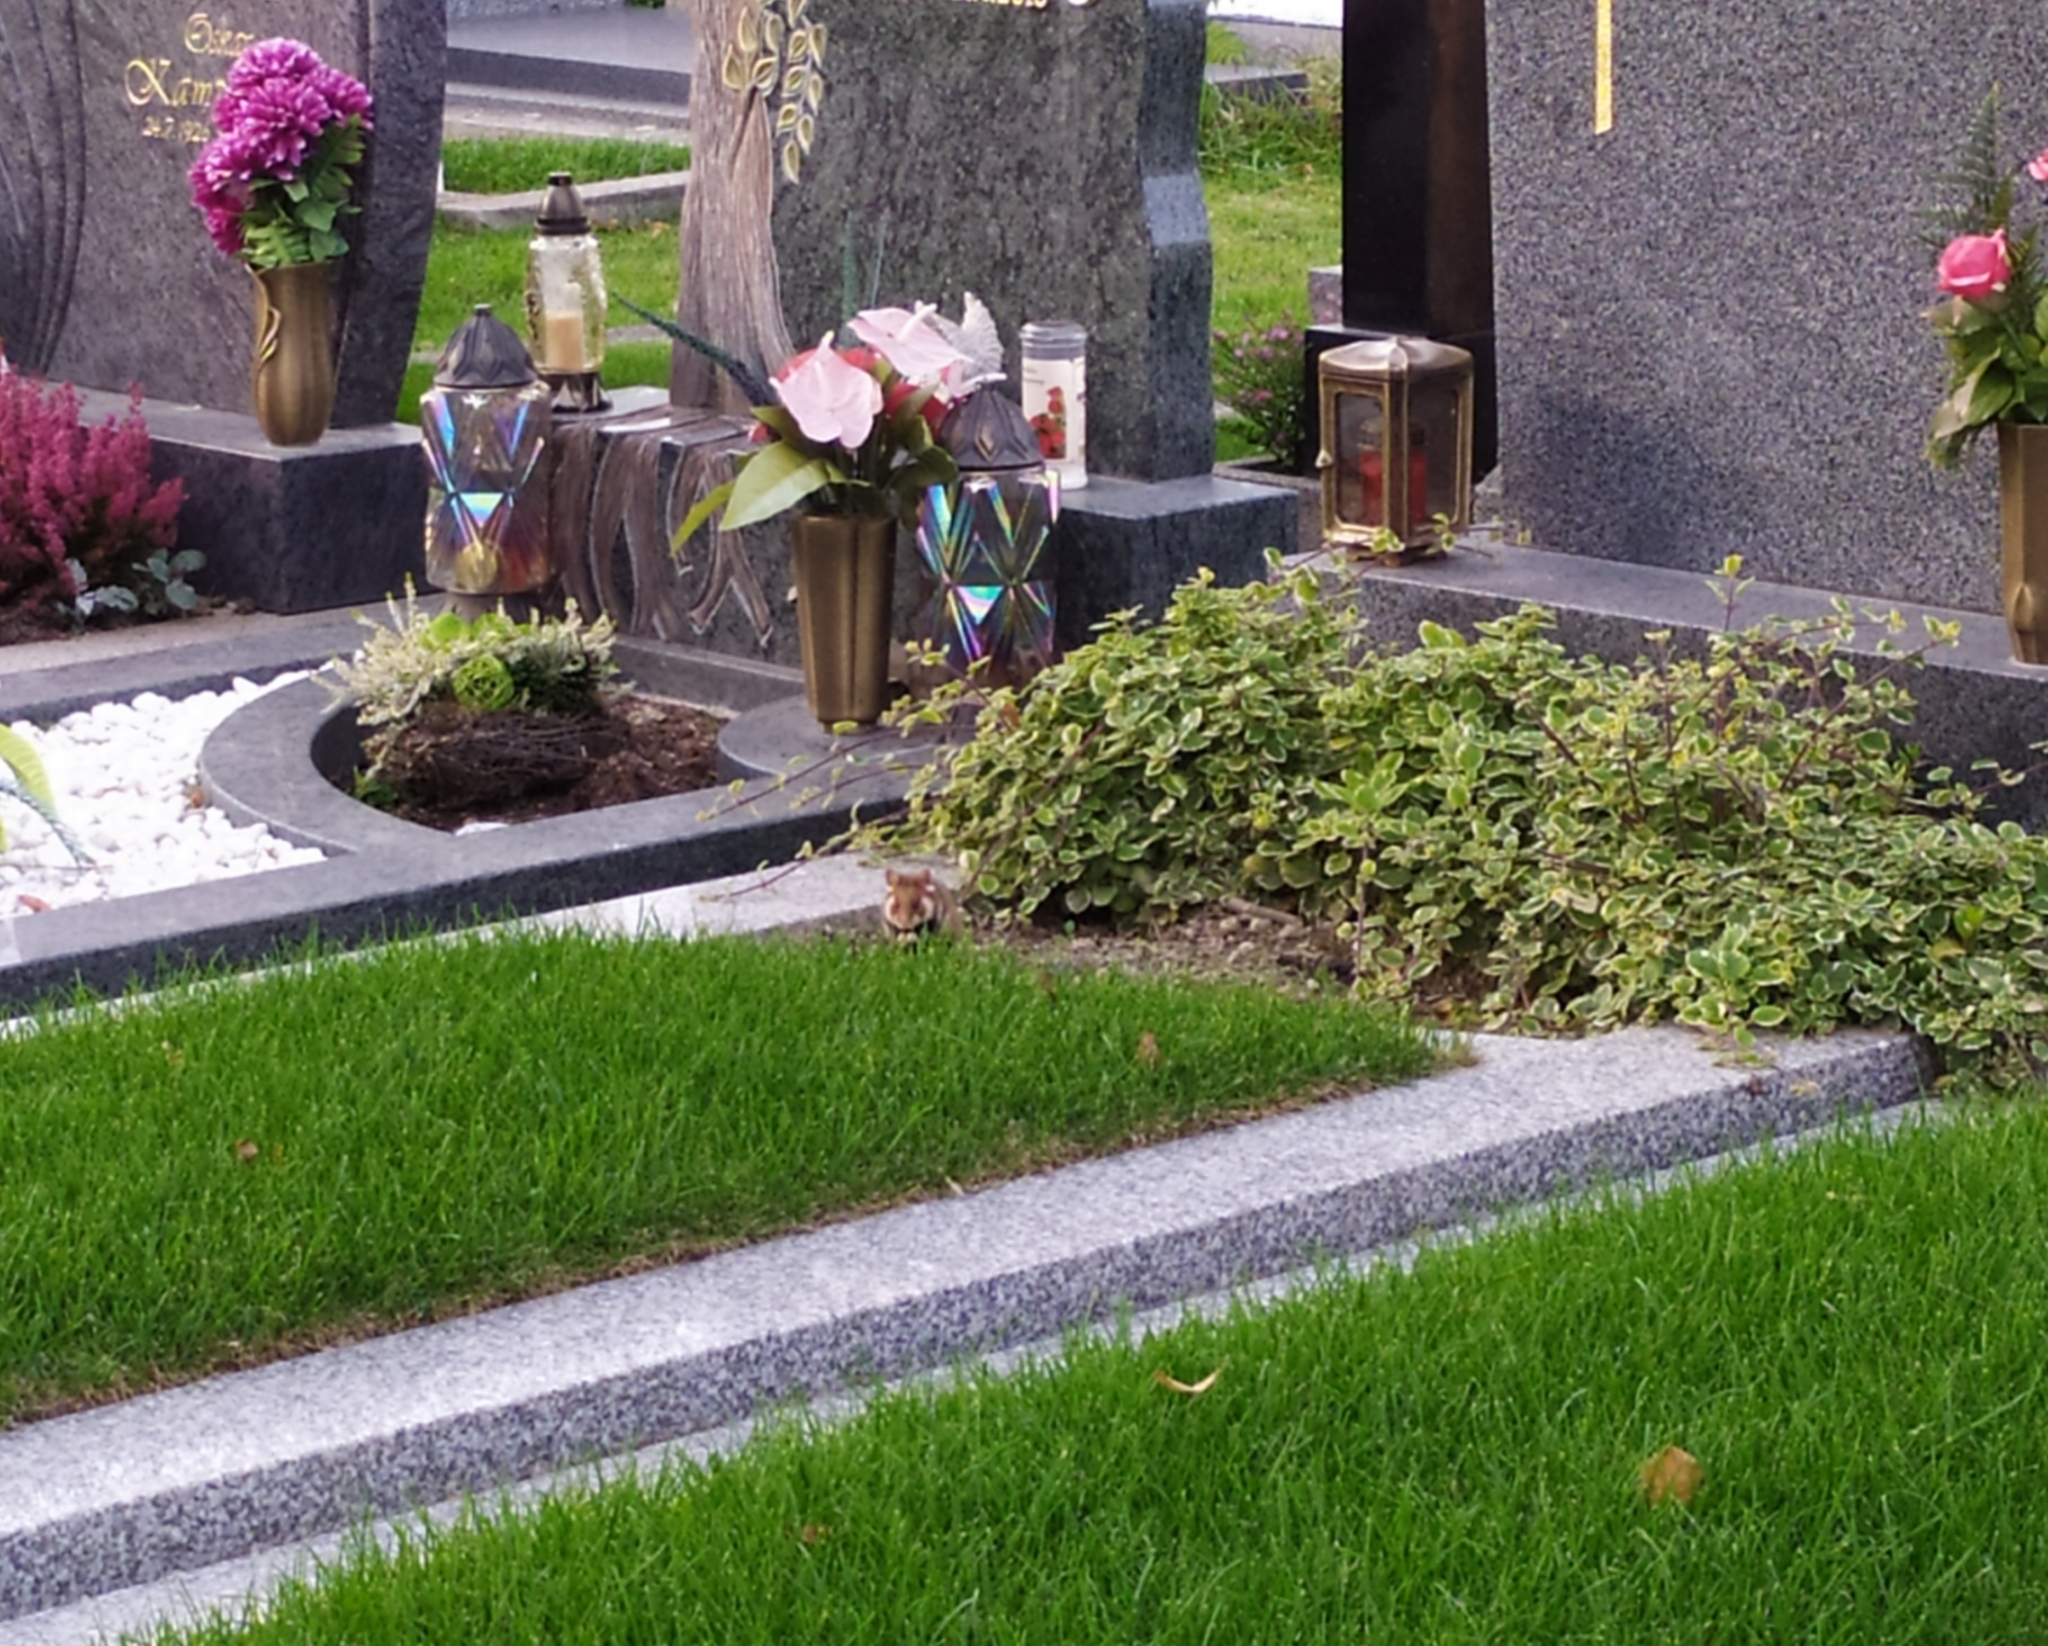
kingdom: Animalia
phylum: Chordata
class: Mammalia
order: Rodentia
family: Cricetidae
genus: Cricetus
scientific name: Cricetus cricetus
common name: Common hamster
